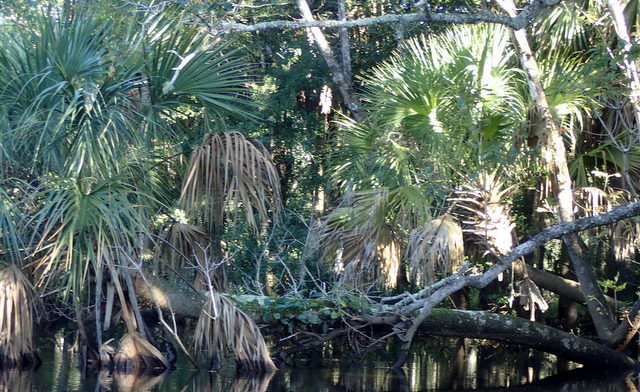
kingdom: Plantae
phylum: Tracheophyta
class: Liliopsida
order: Arecales
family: Arecaceae
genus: Sabal
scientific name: Sabal palmetto
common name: Blue palmetto
